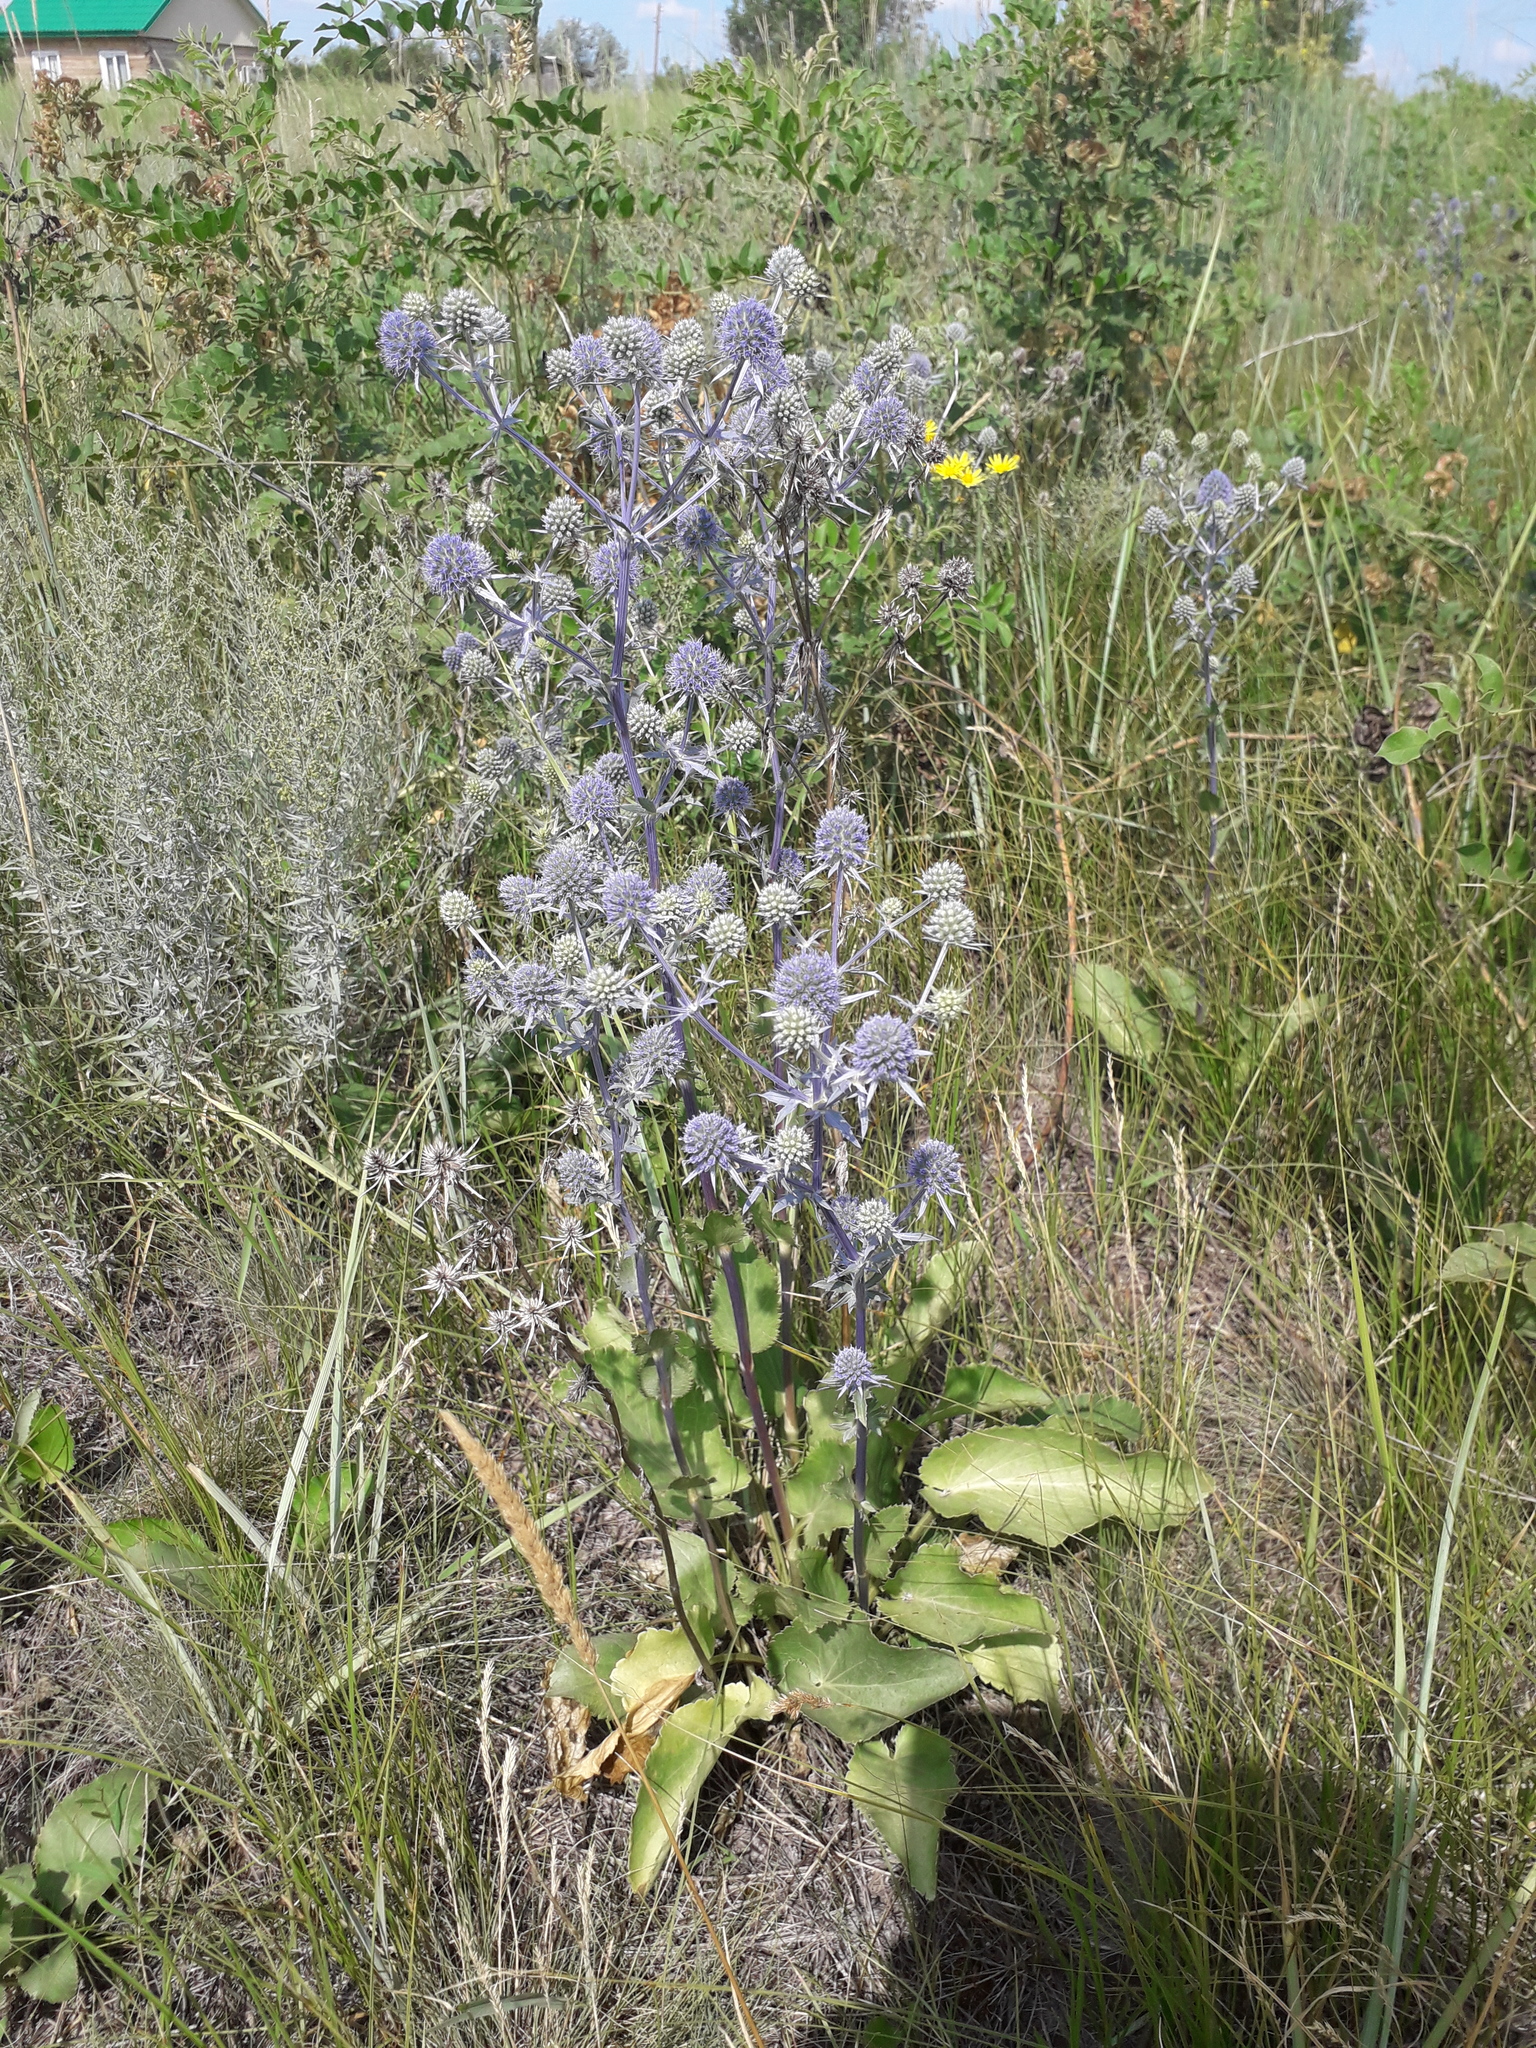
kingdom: Plantae
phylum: Tracheophyta
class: Magnoliopsida
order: Apiales
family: Apiaceae
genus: Eryngium
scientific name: Eryngium planum
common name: Blue eryngo
